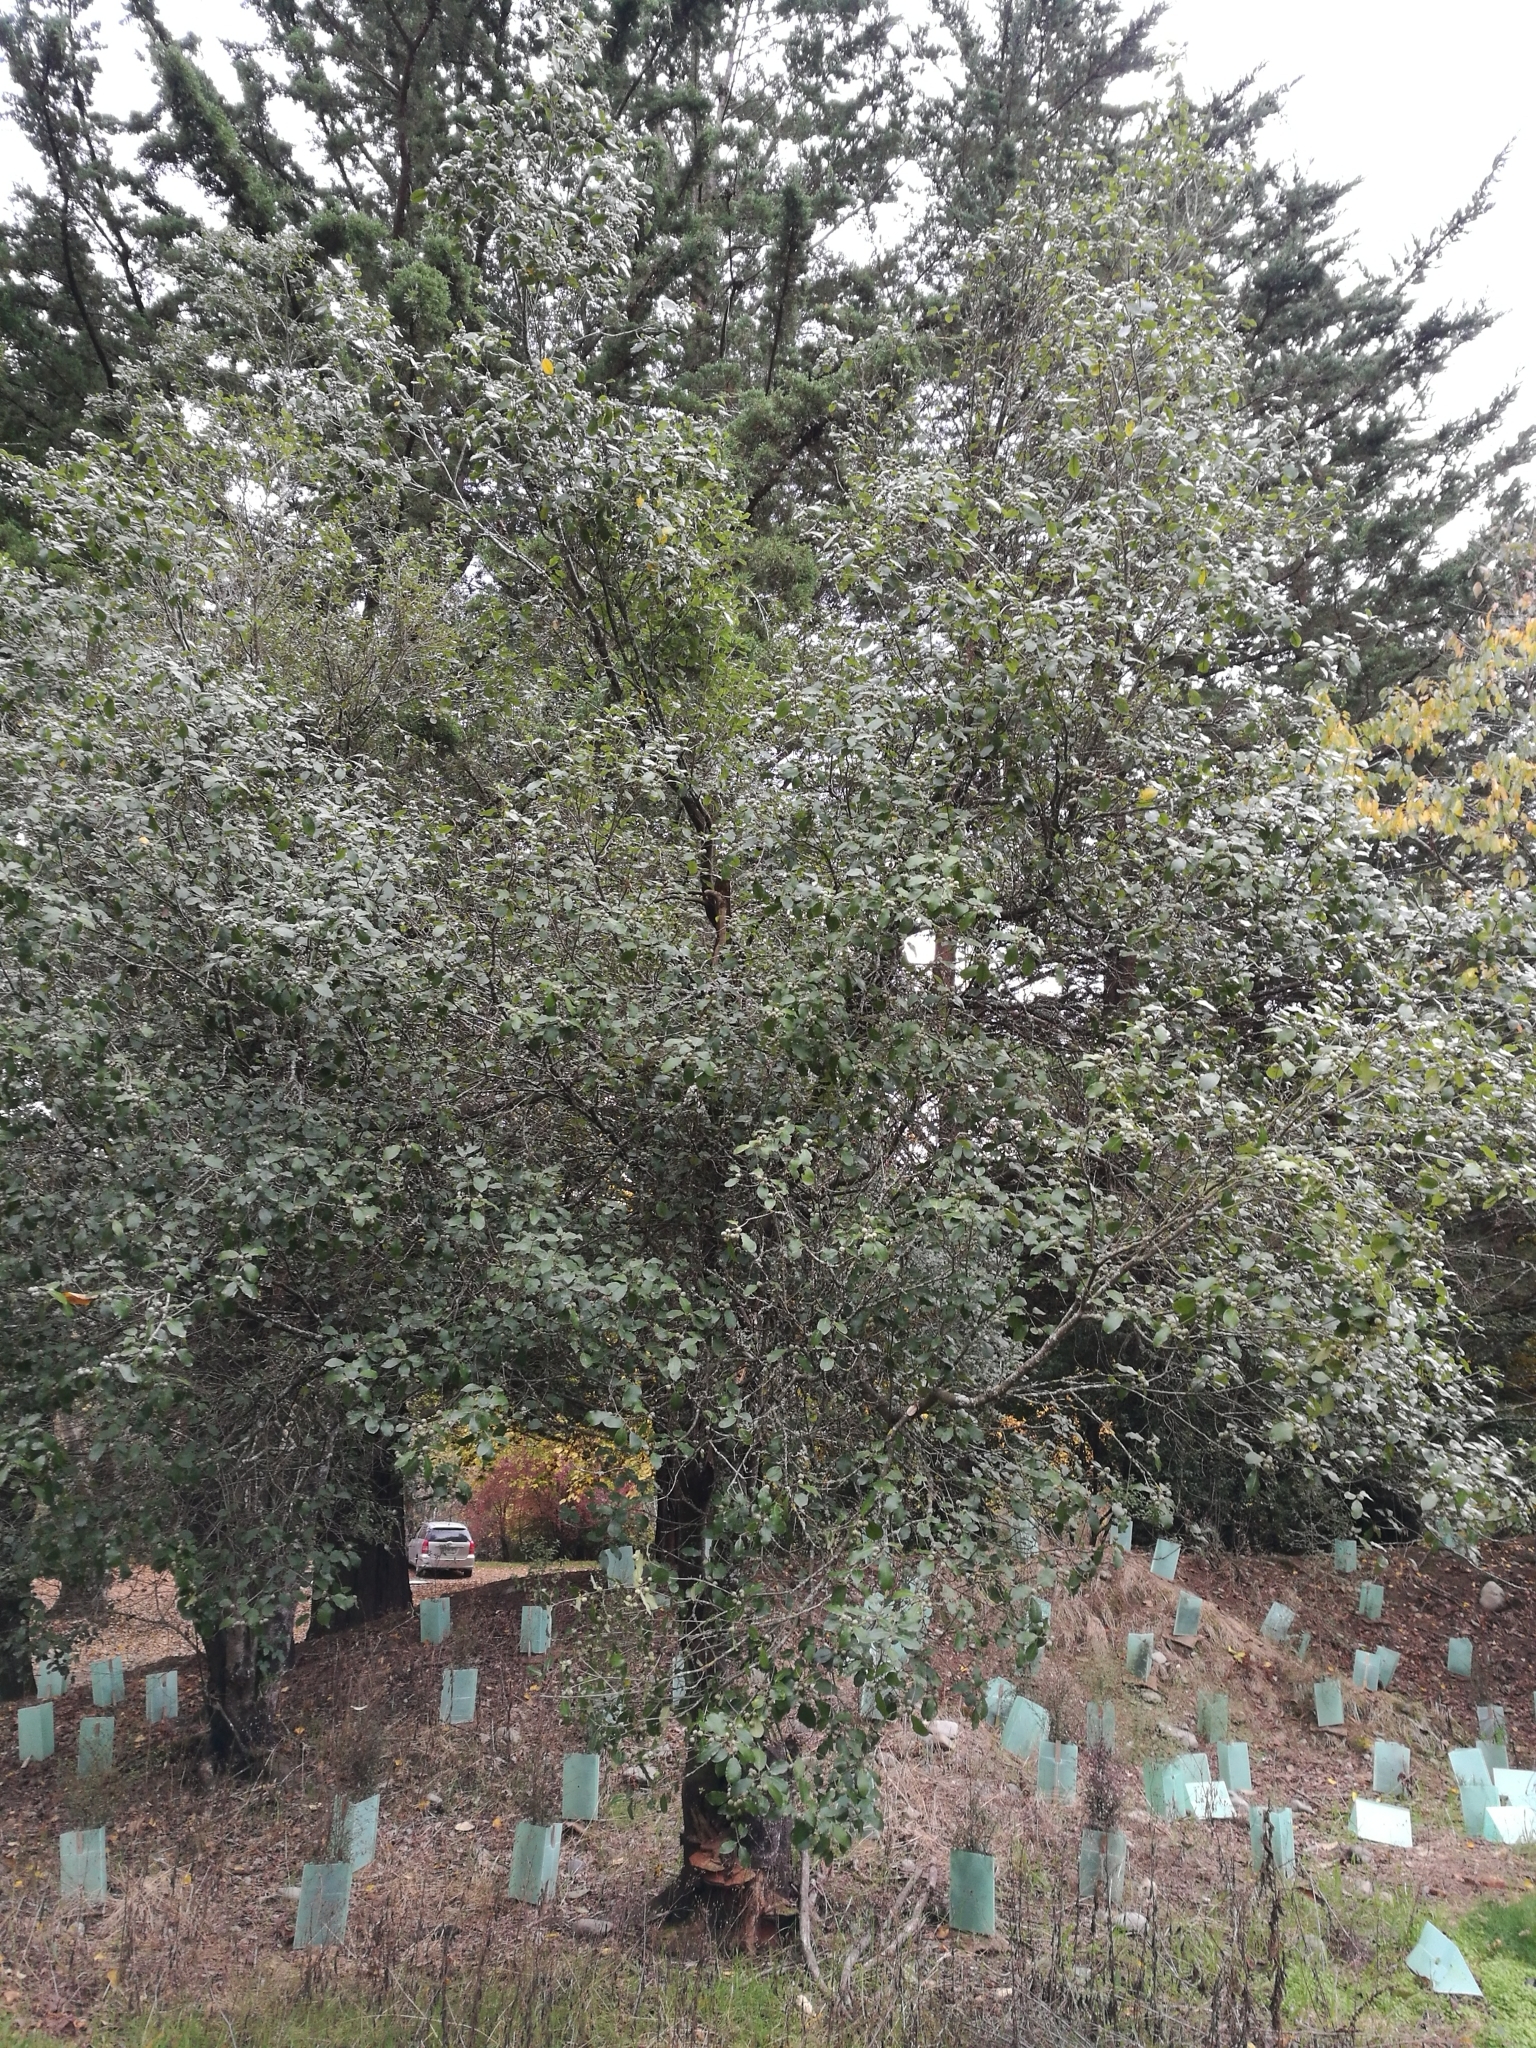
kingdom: Plantae
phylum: Tracheophyta
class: Magnoliopsida
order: Apiales
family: Pittosporaceae
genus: Pittosporum
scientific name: Pittosporum crassifolium
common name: Karo
